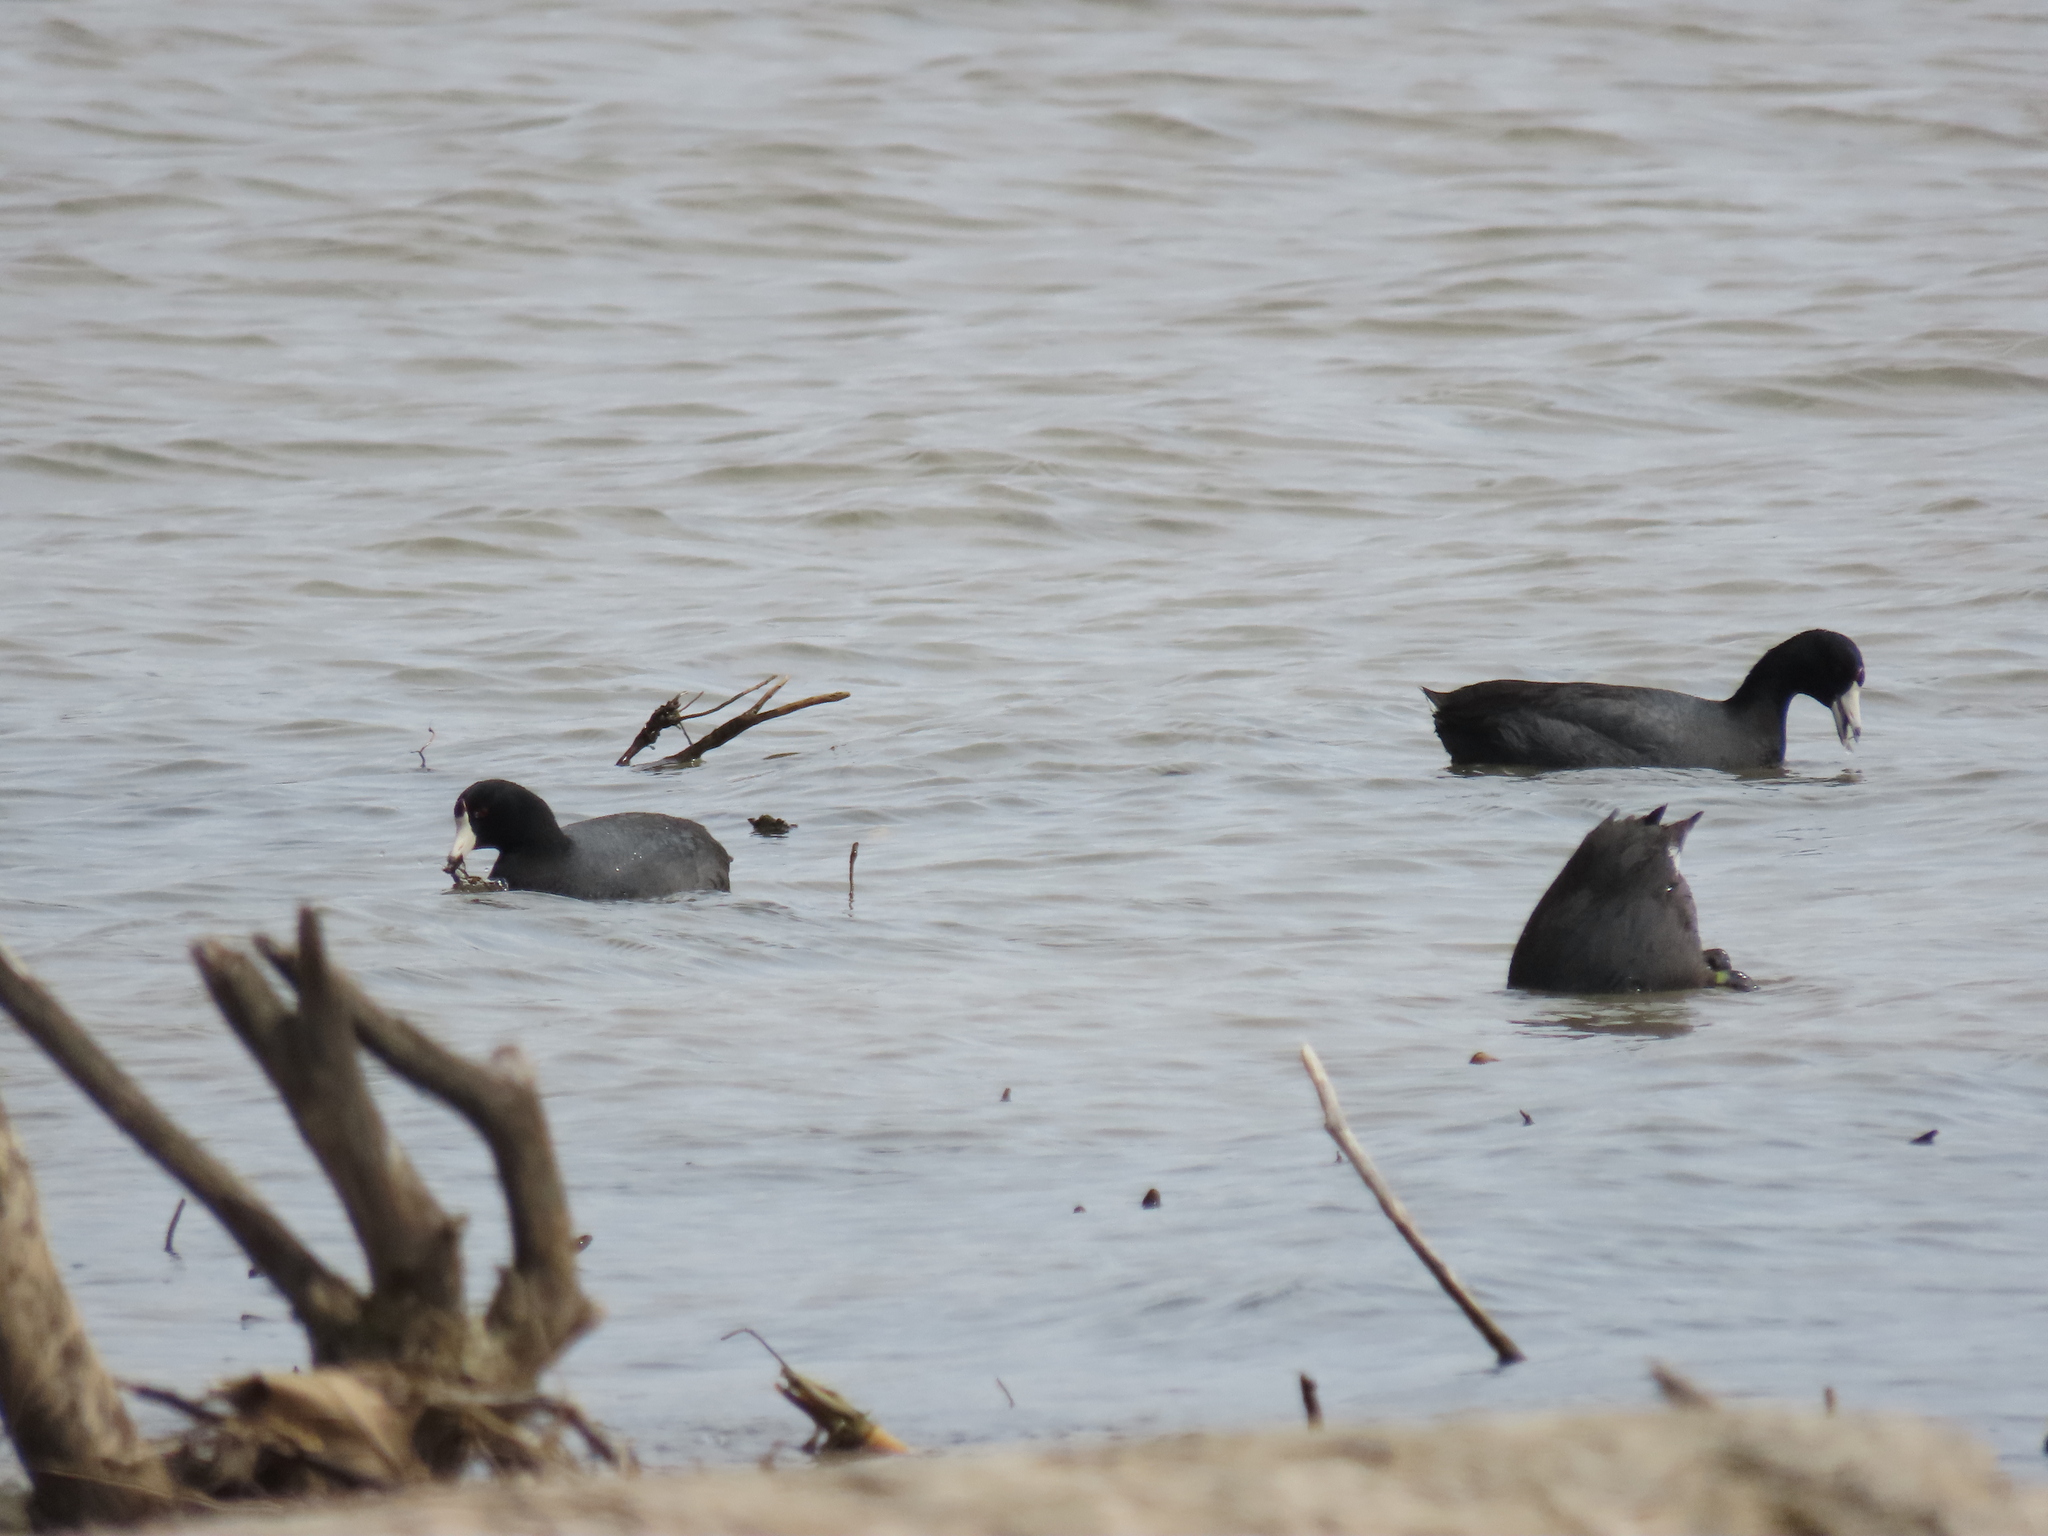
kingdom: Animalia
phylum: Chordata
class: Aves
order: Gruiformes
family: Rallidae
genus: Fulica
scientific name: Fulica americana
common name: American coot
